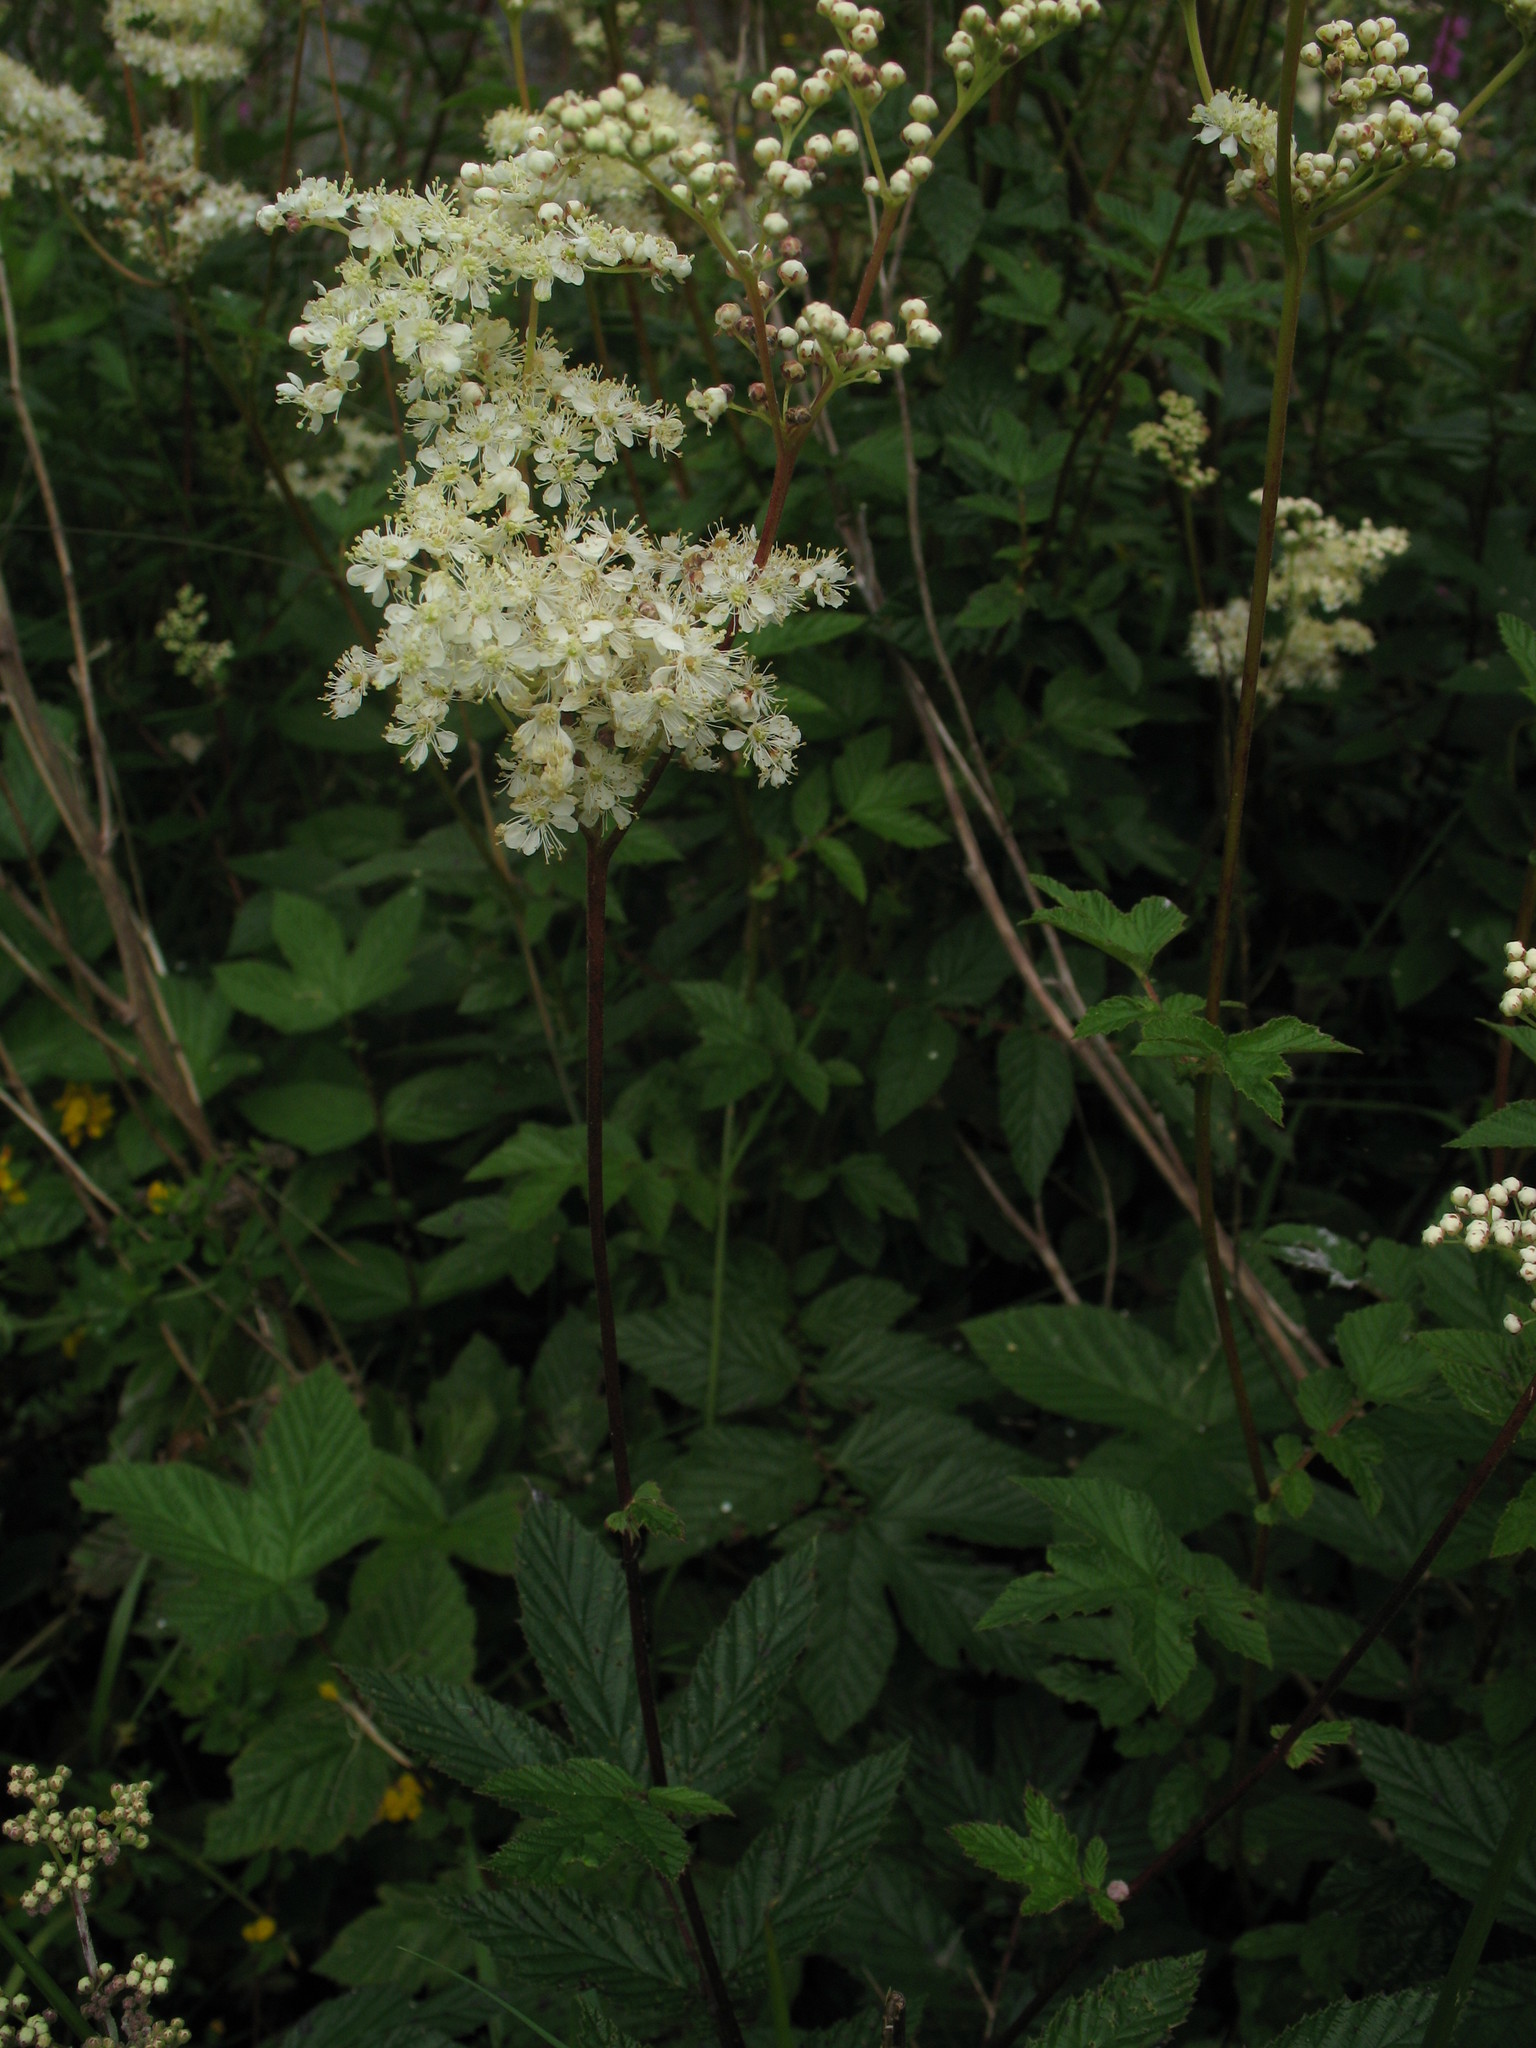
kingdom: Plantae
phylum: Tracheophyta
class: Magnoliopsida
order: Rosales
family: Rosaceae
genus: Filipendula
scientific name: Filipendula ulmaria
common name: Meadowsweet
